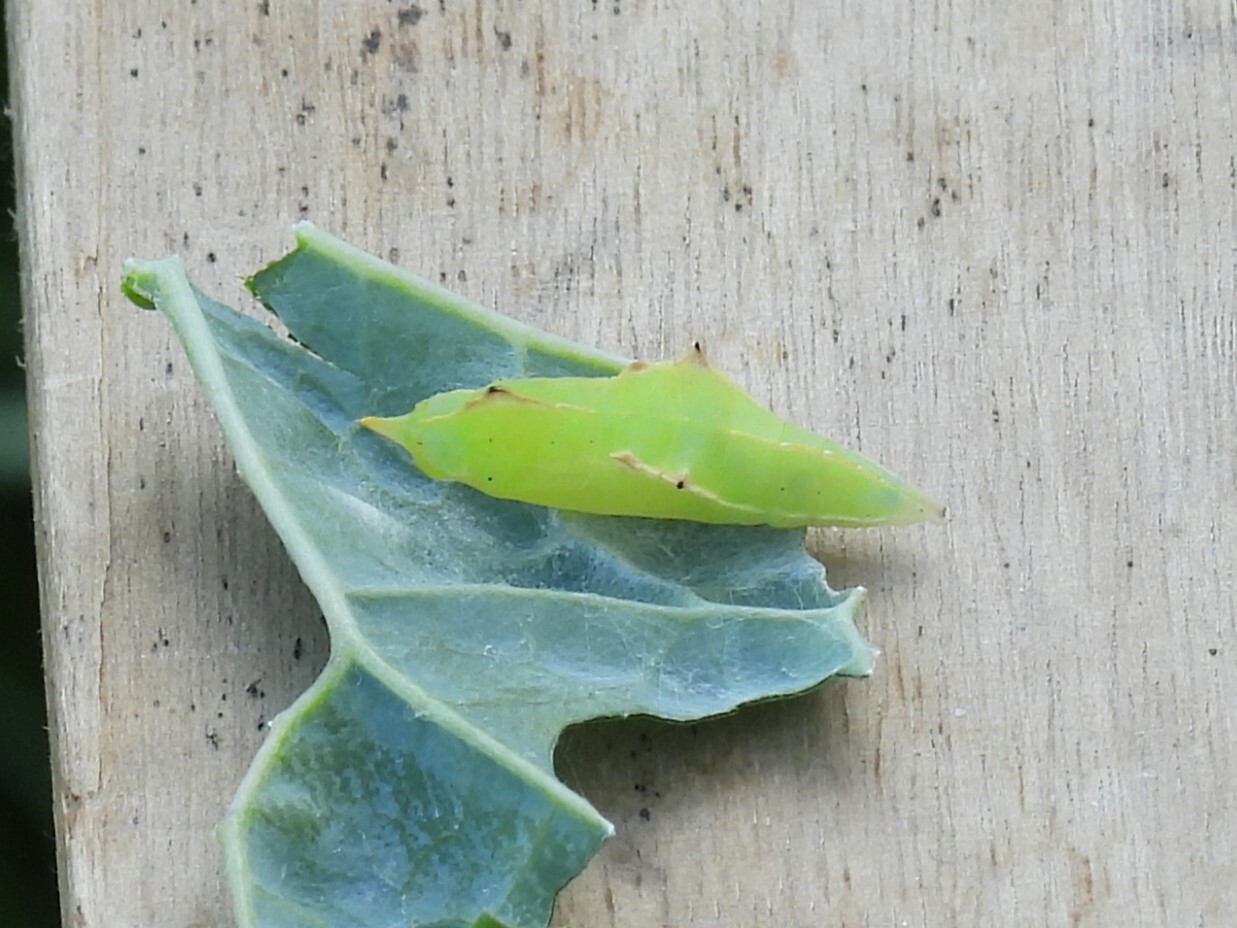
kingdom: Animalia
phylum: Arthropoda
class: Insecta
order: Lepidoptera
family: Pieridae
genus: Pieris
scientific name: Pieris rapae
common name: Small white
